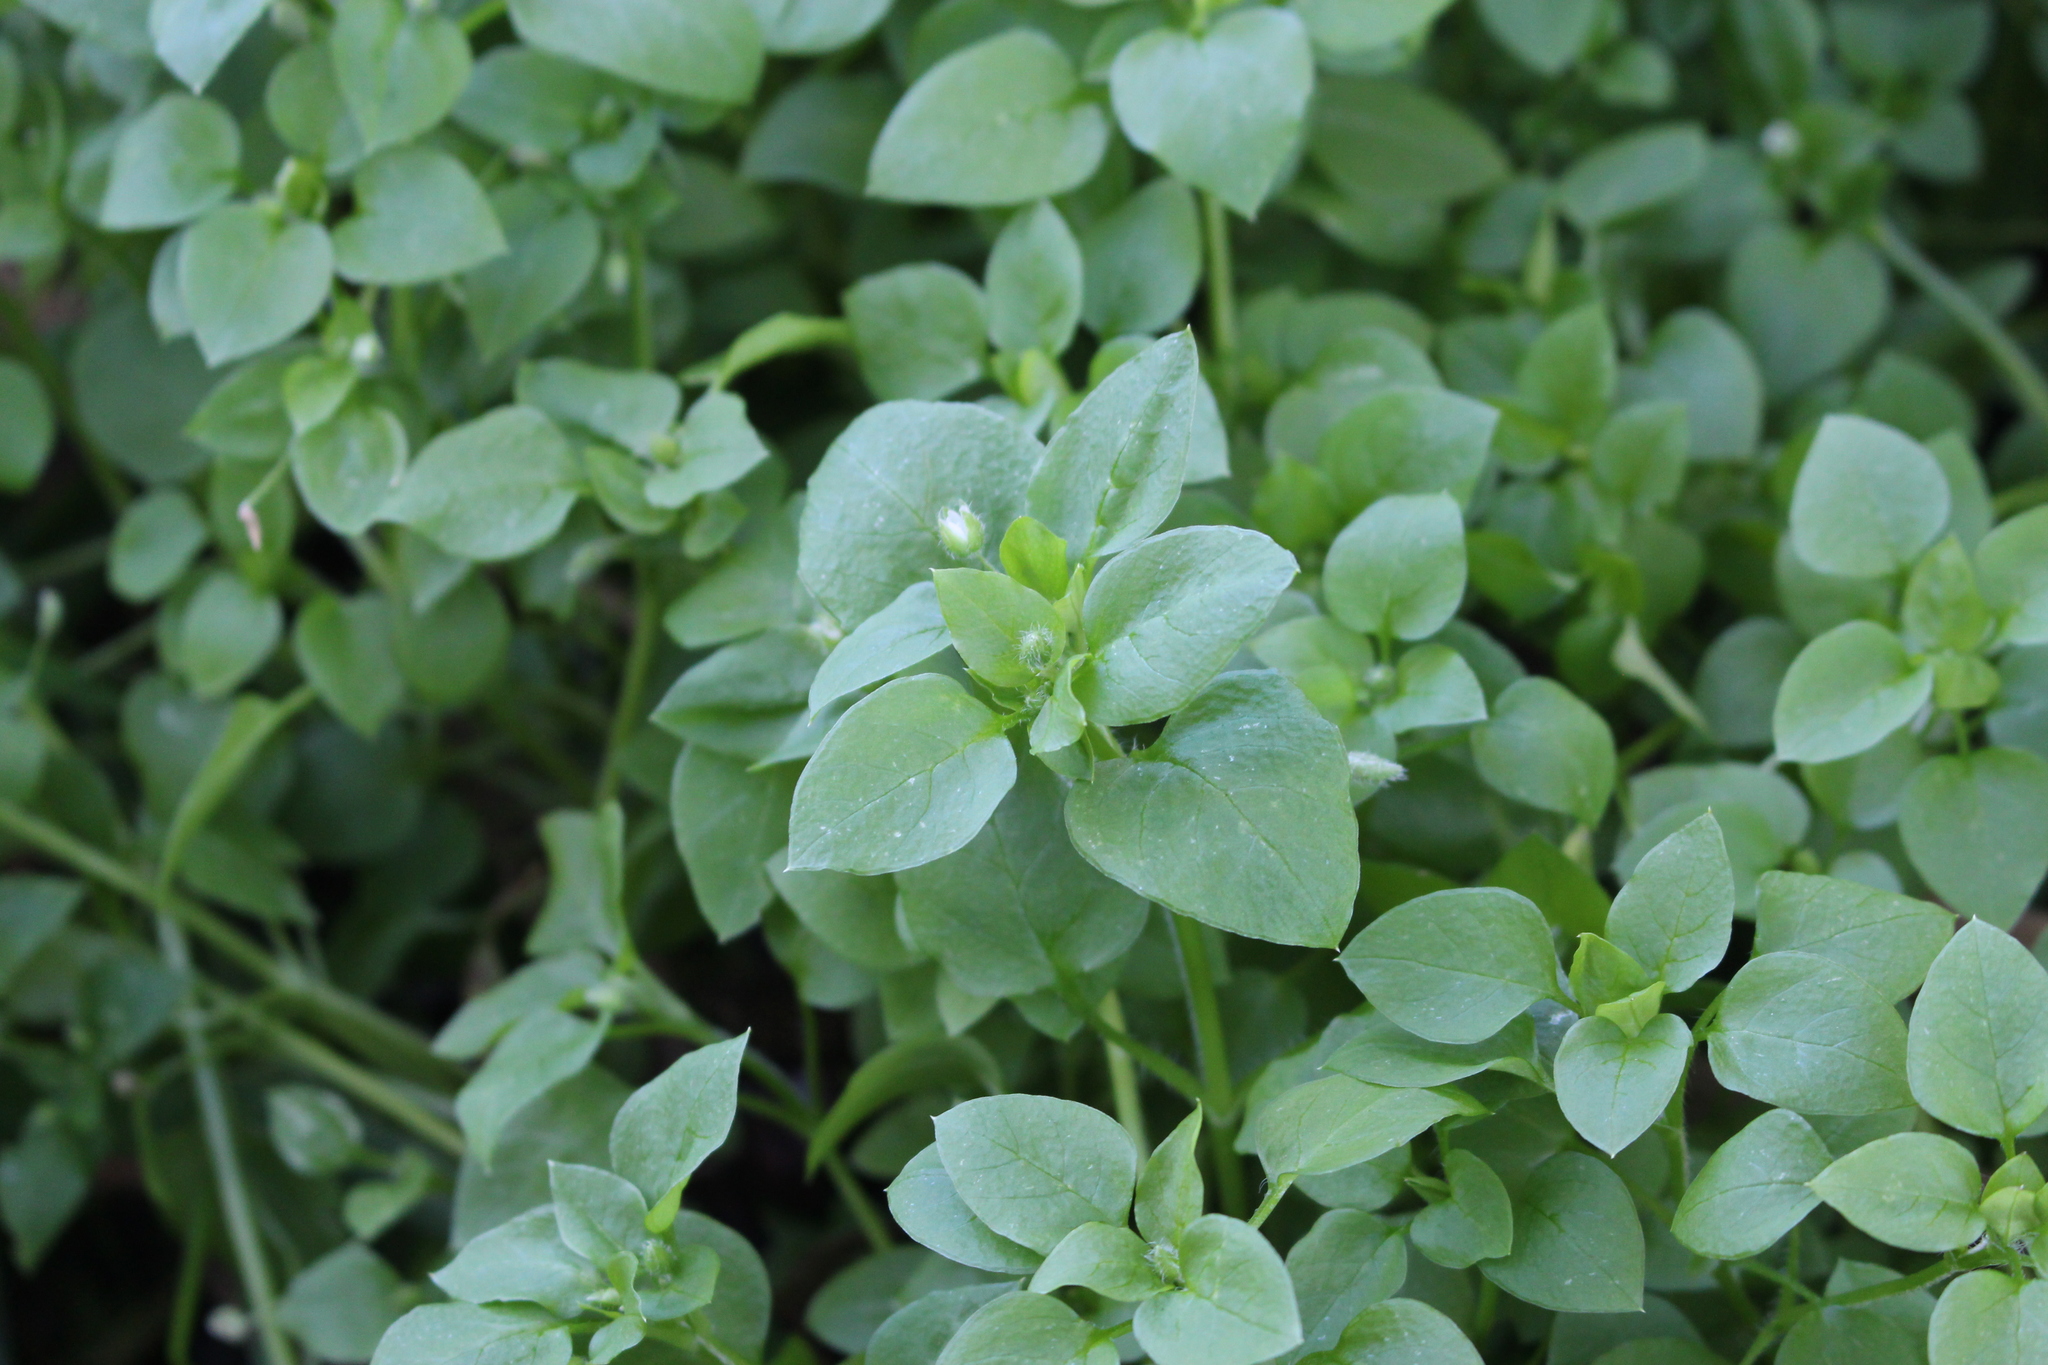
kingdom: Plantae
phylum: Tracheophyta
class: Magnoliopsida
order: Caryophyllales
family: Caryophyllaceae
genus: Stellaria
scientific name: Stellaria media
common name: Common chickweed
